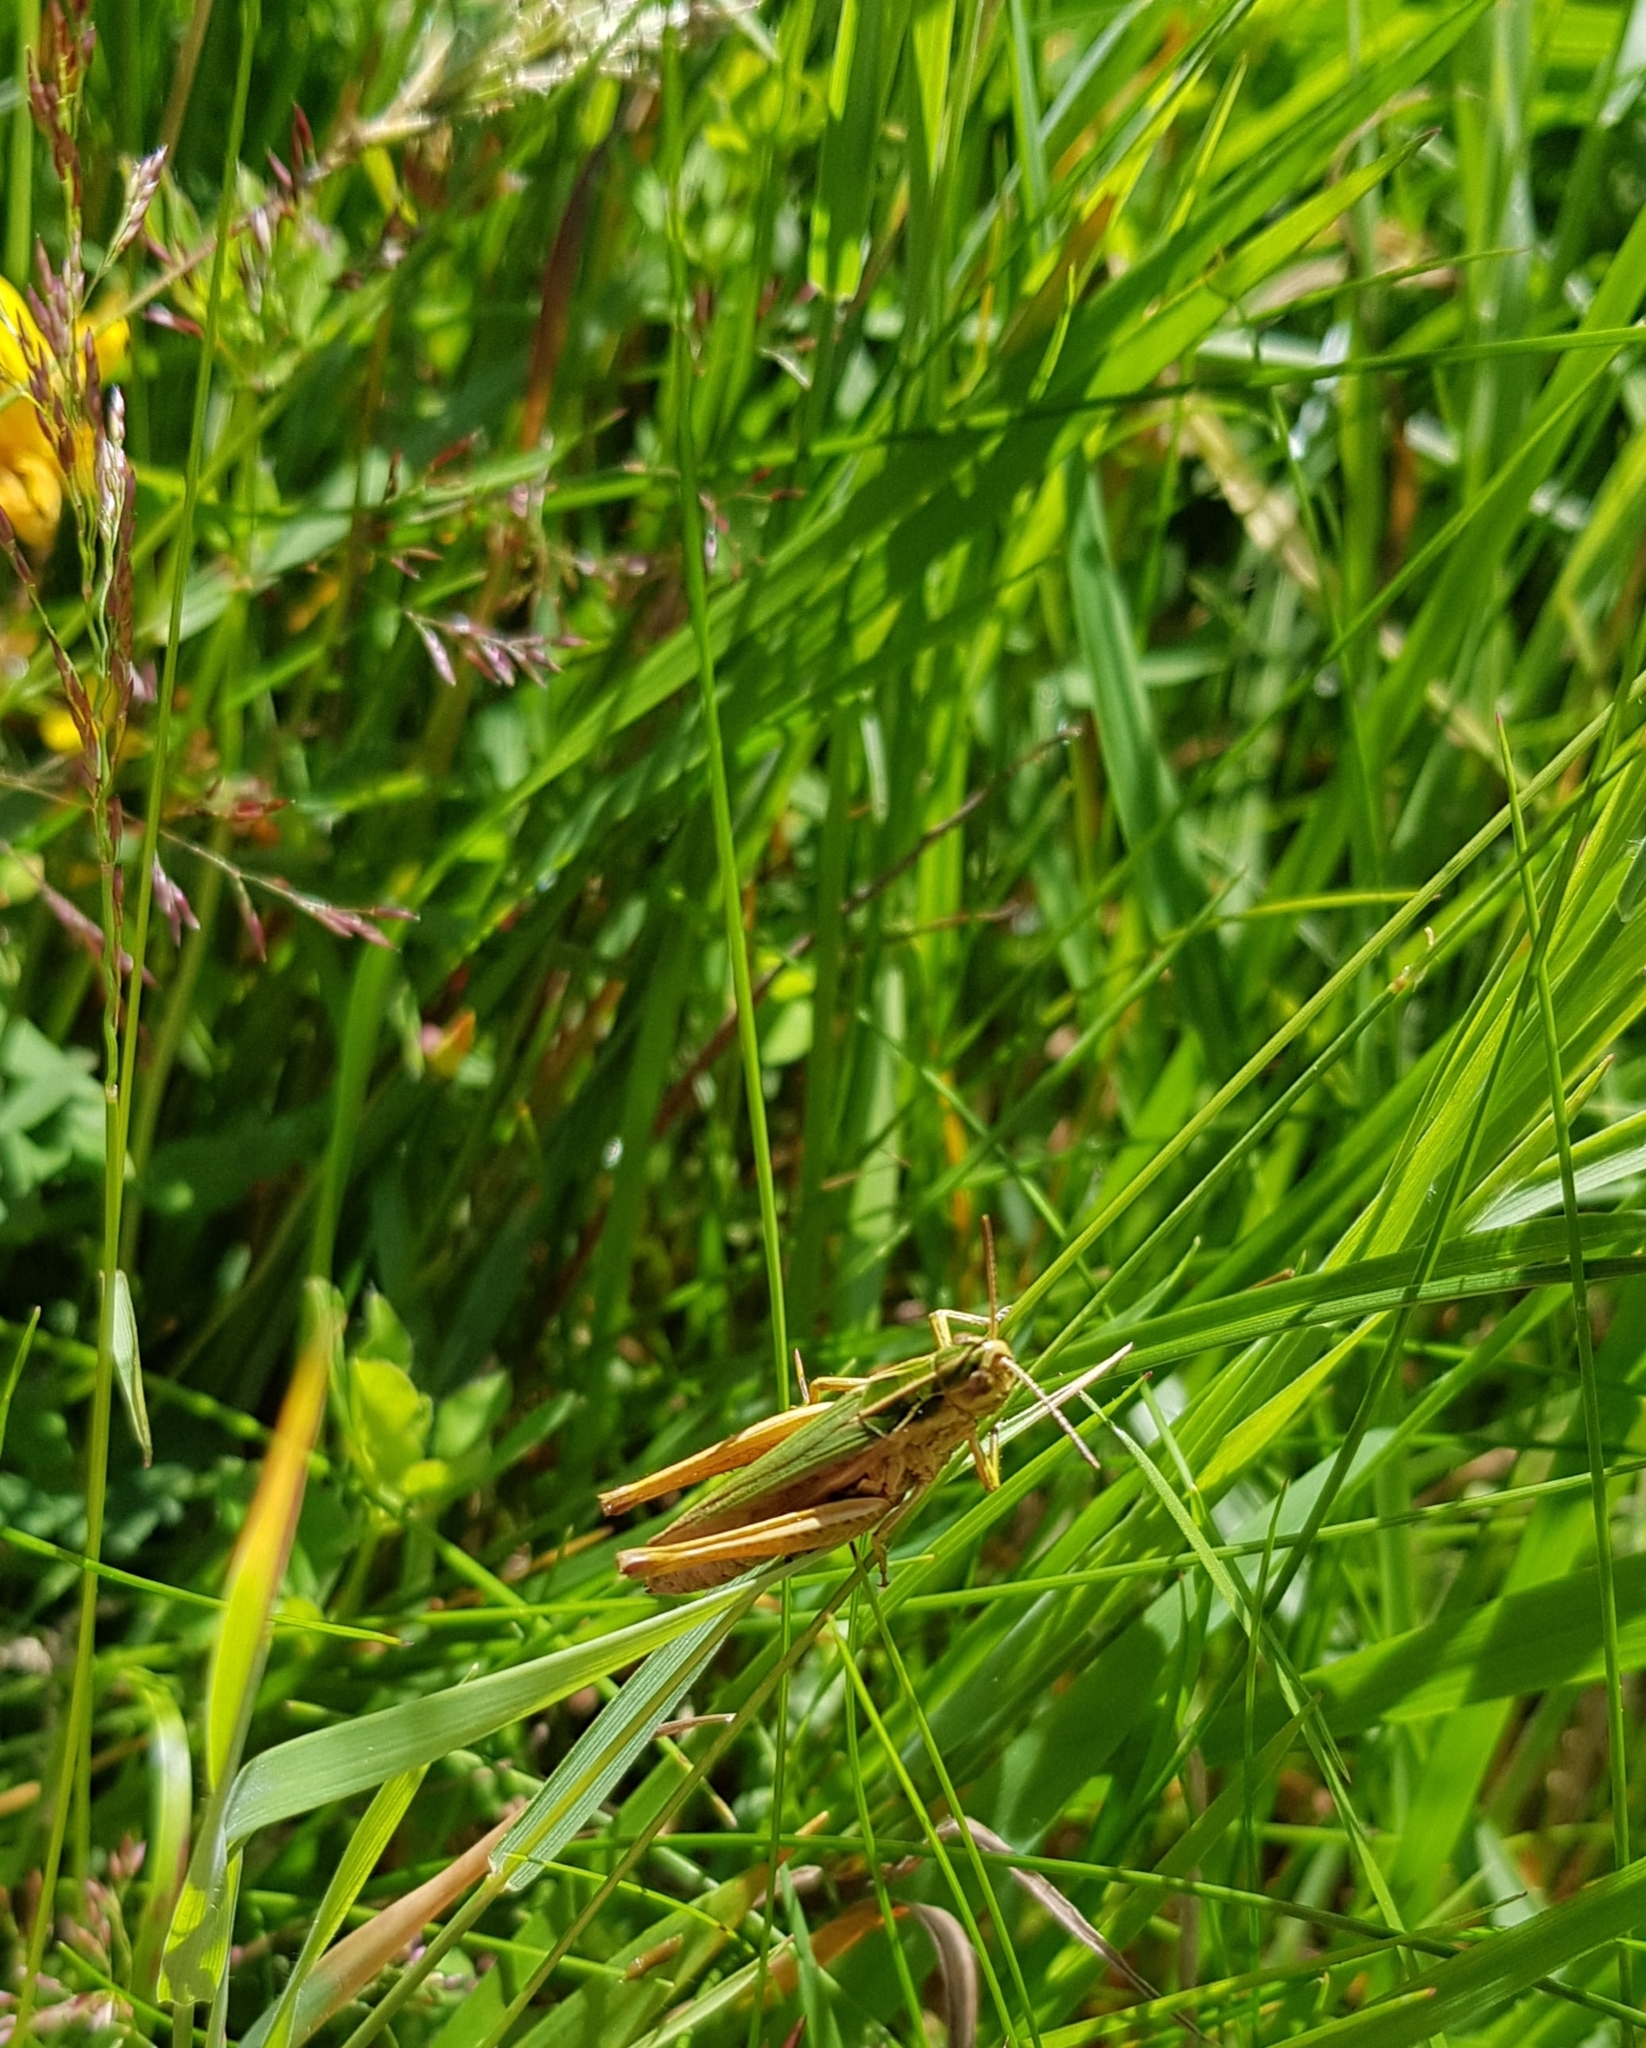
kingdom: Animalia
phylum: Arthropoda
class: Insecta
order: Orthoptera
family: Acrididae
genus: Omocestus
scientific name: Omocestus viridulus
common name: Common green grasshopper
